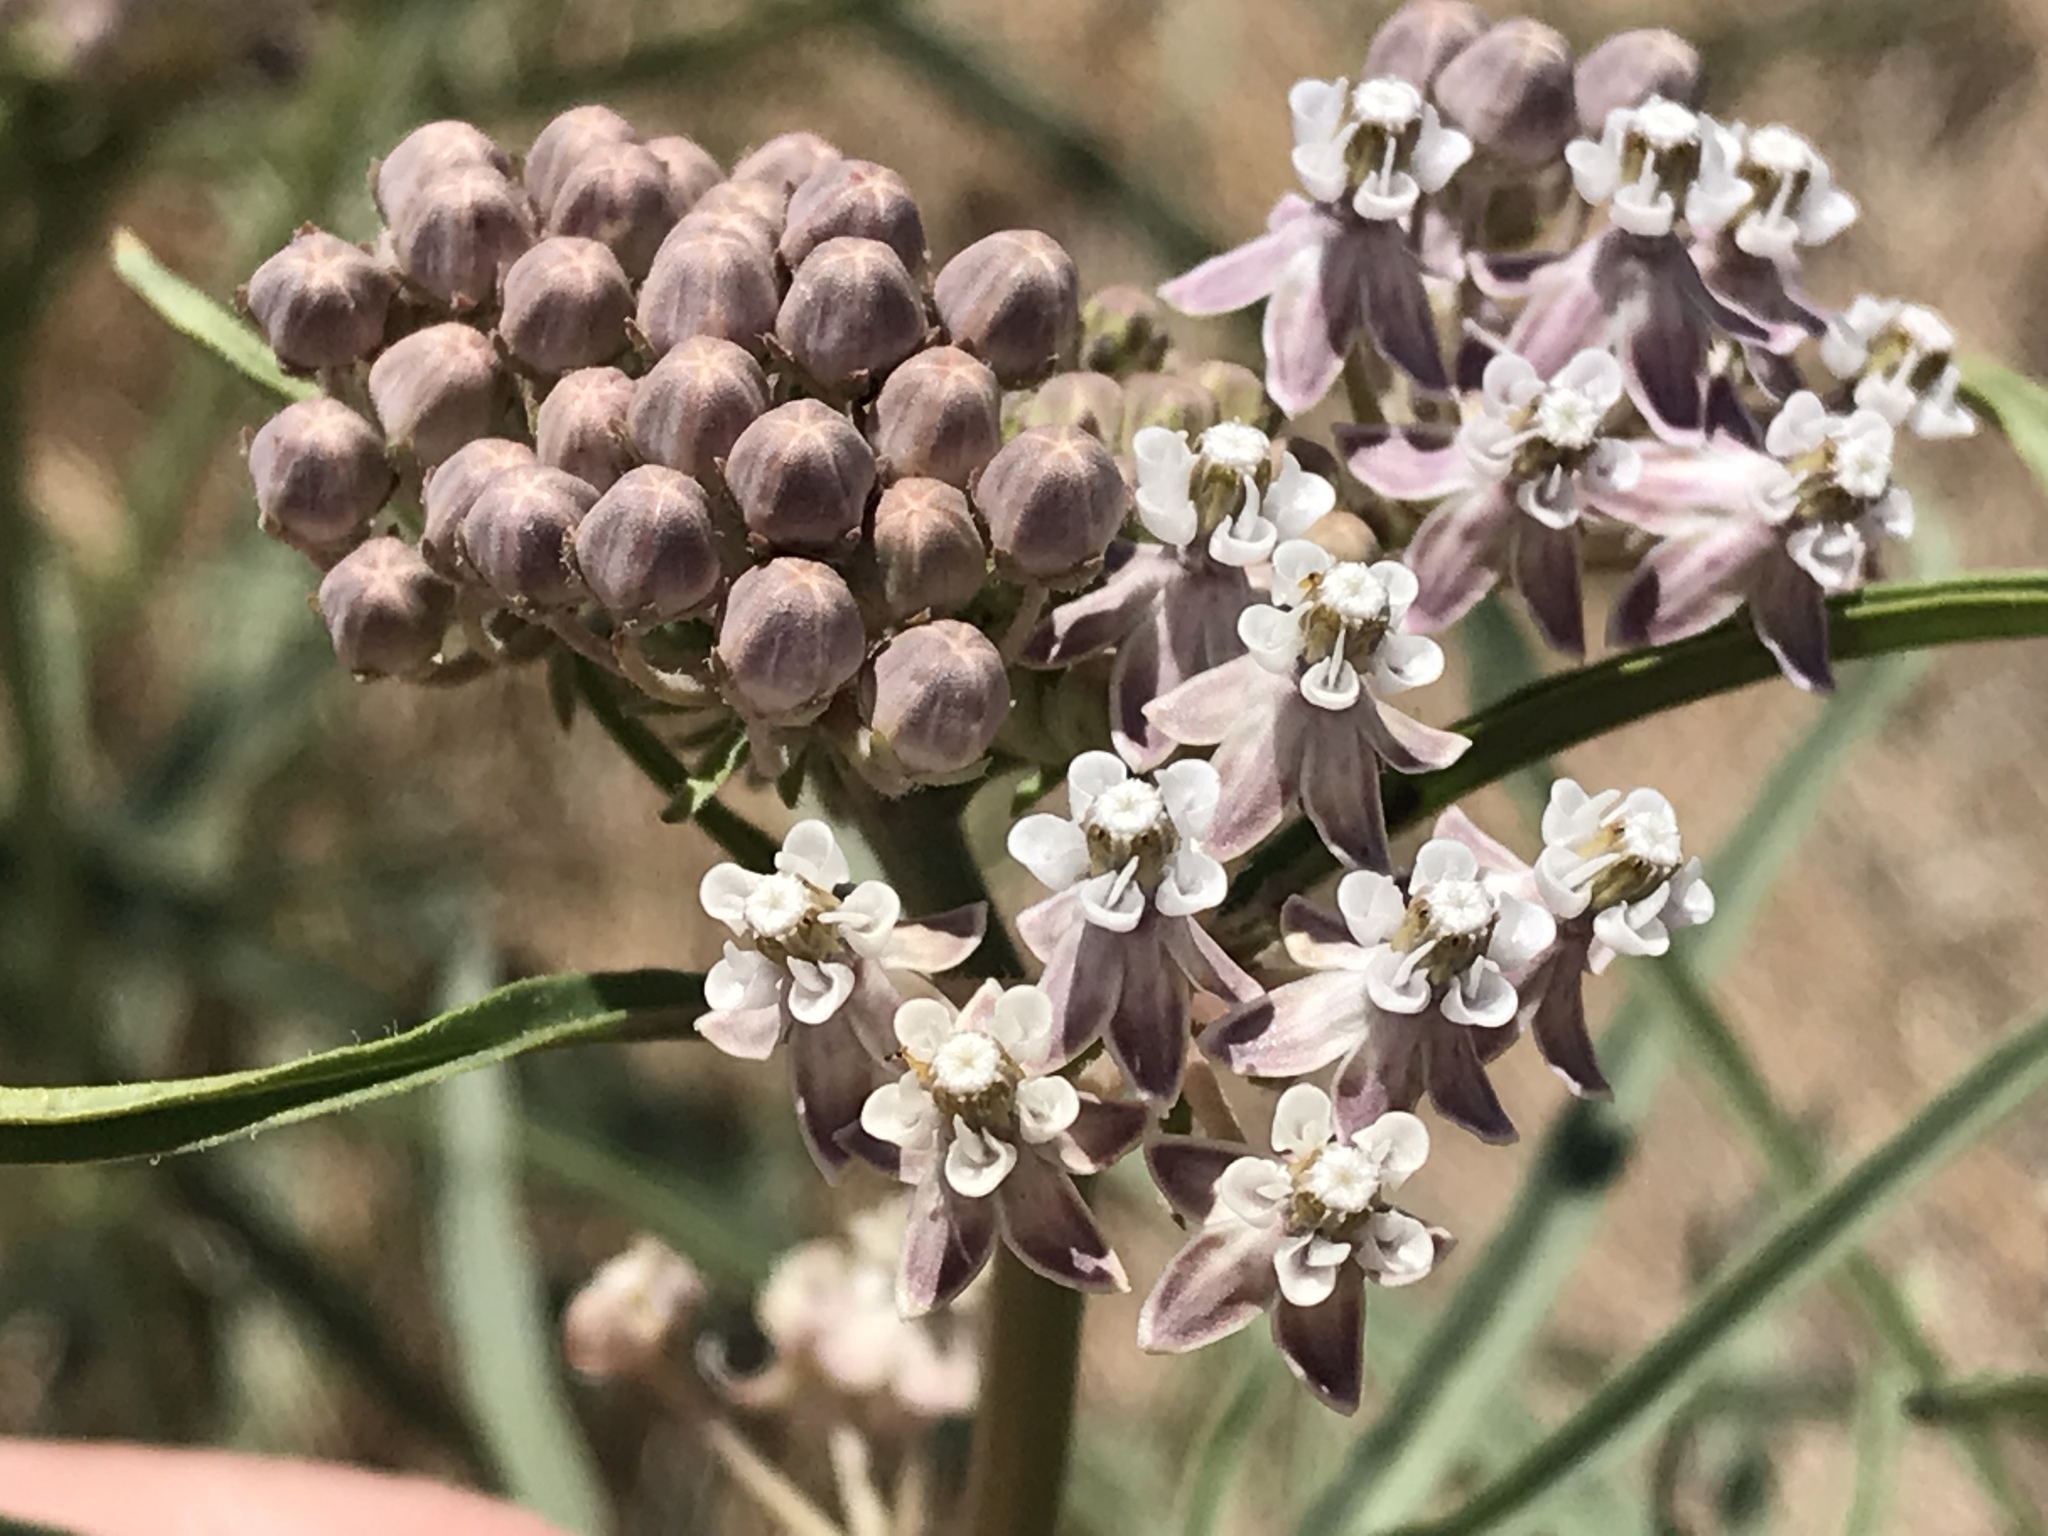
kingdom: Plantae
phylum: Tracheophyta
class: Magnoliopsida
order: Gentianales
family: Apocynaceae
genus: Asclepias
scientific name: Asclepias fascicularis
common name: Mexican milkweed
